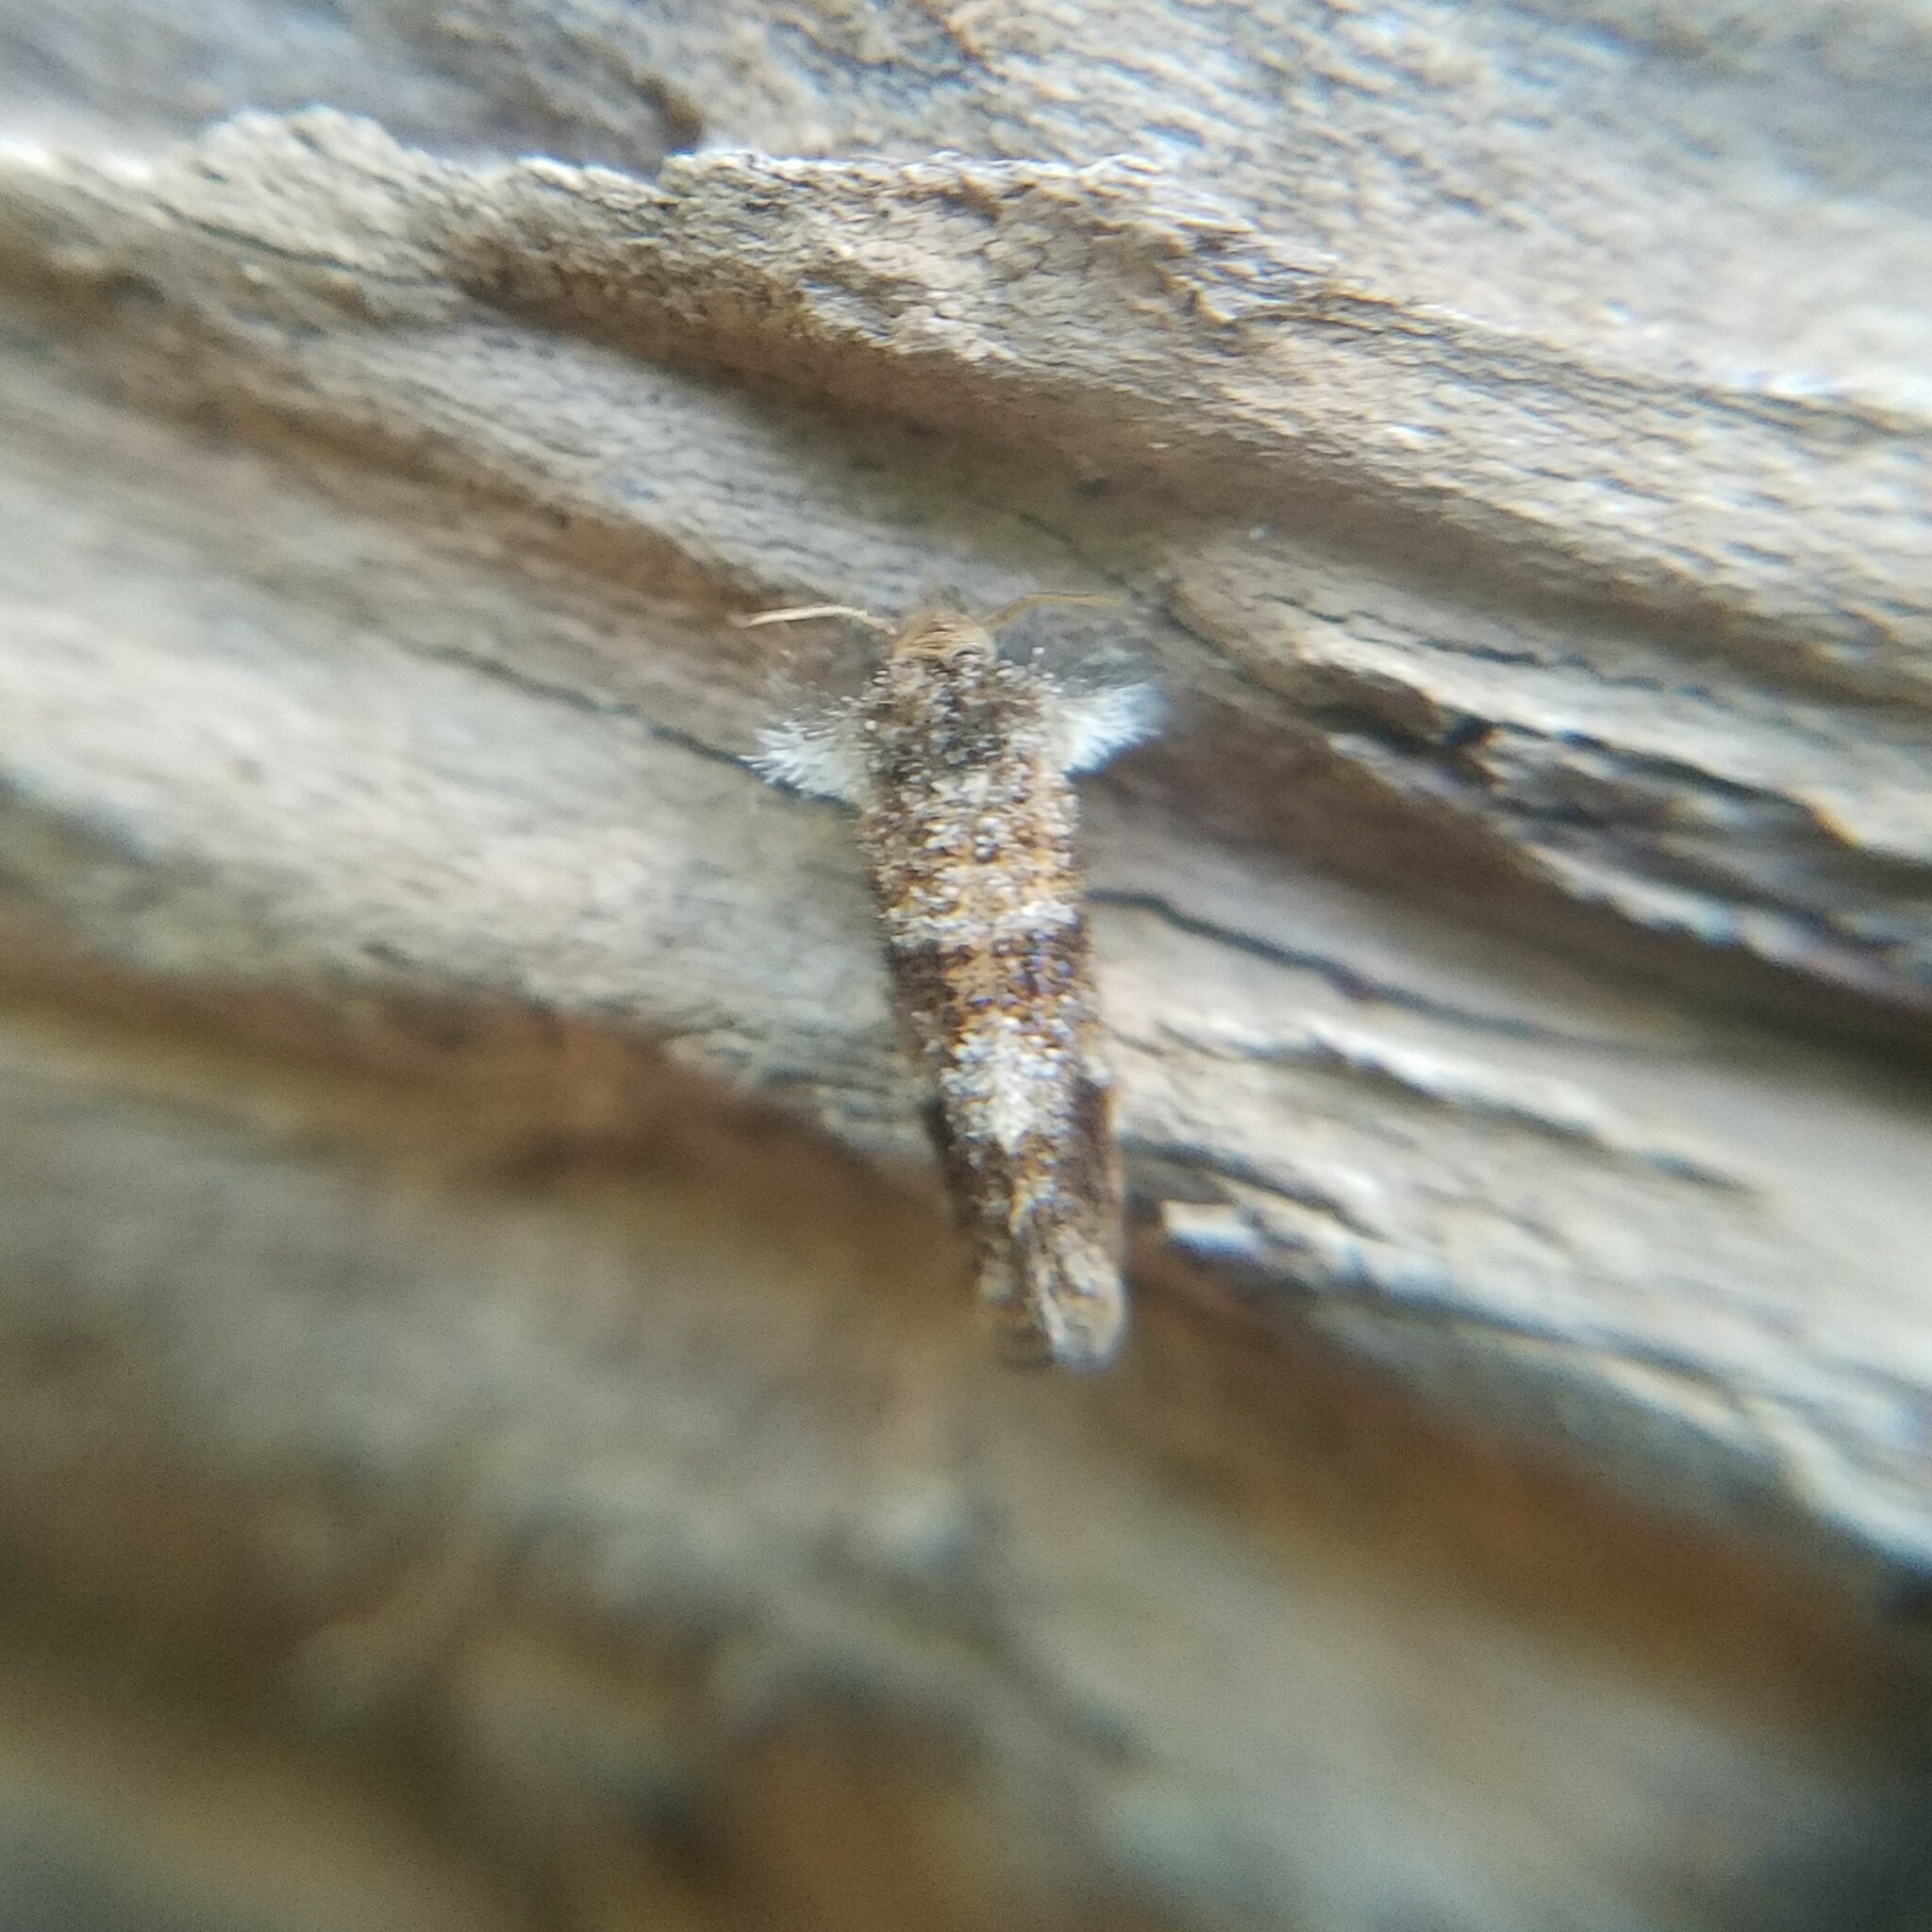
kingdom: Animalia
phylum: Arthropoda
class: Insecta
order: Lepidoptera
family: Tineidae
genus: Acrolophus
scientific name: Acrolophus panamae
